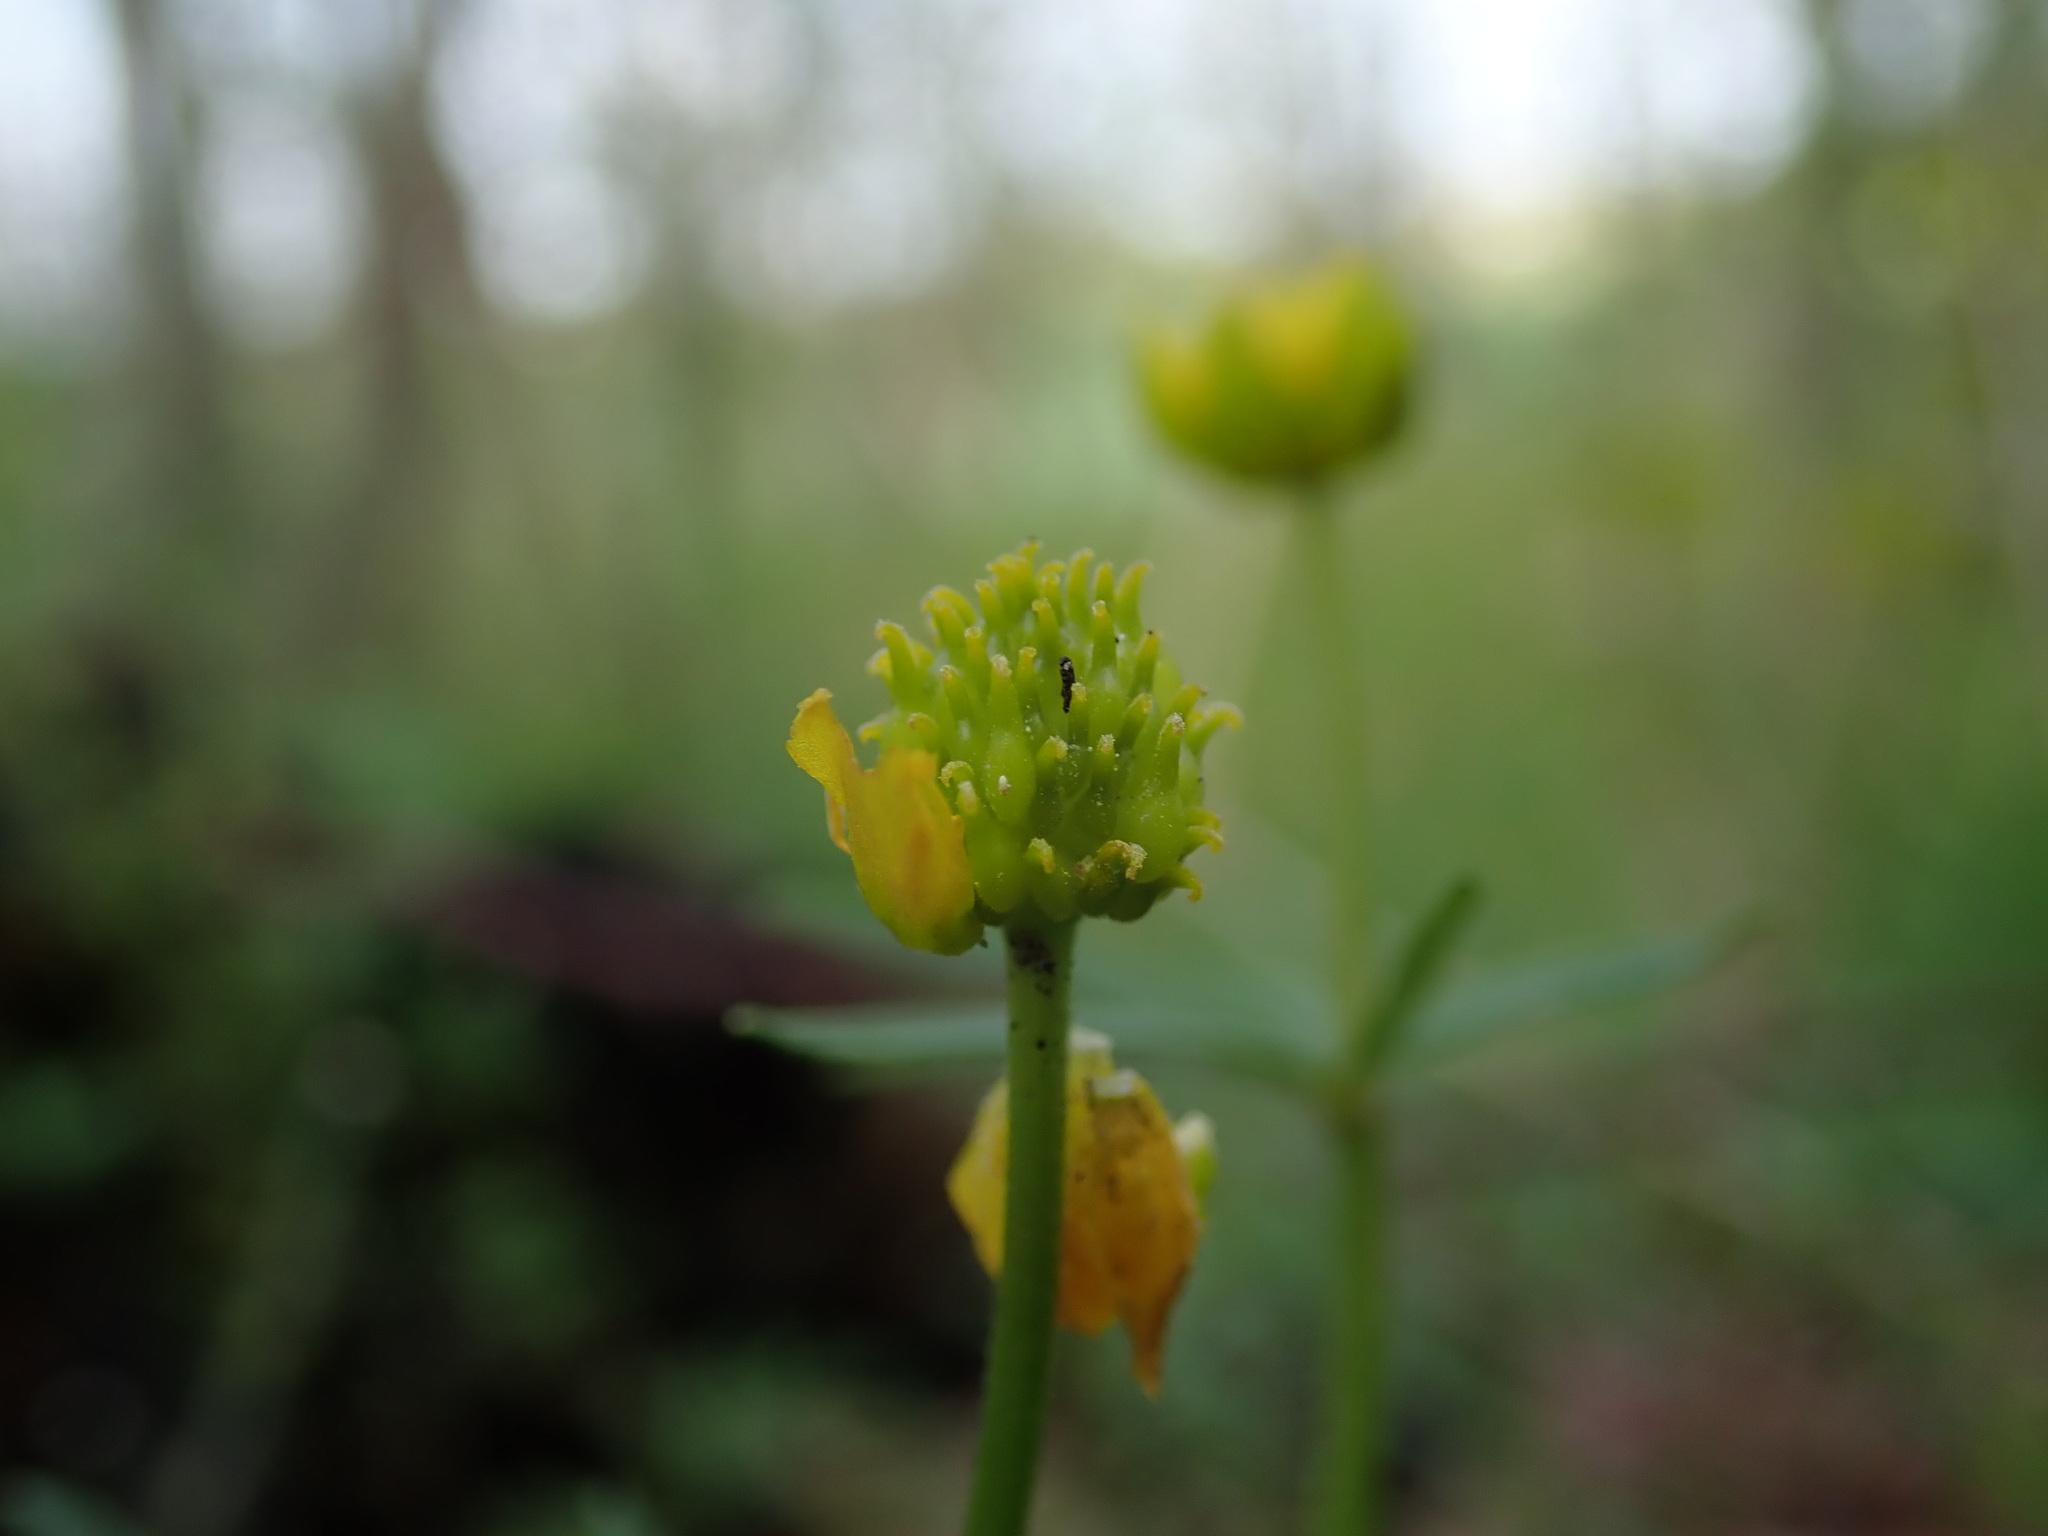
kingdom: Plantae
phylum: Tracheophyta
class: Magnoliopsida
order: Ranunculales
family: Ranunculaceae
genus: Ranunculus
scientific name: Ranunculus auricomus
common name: Goldilocks buttercup
